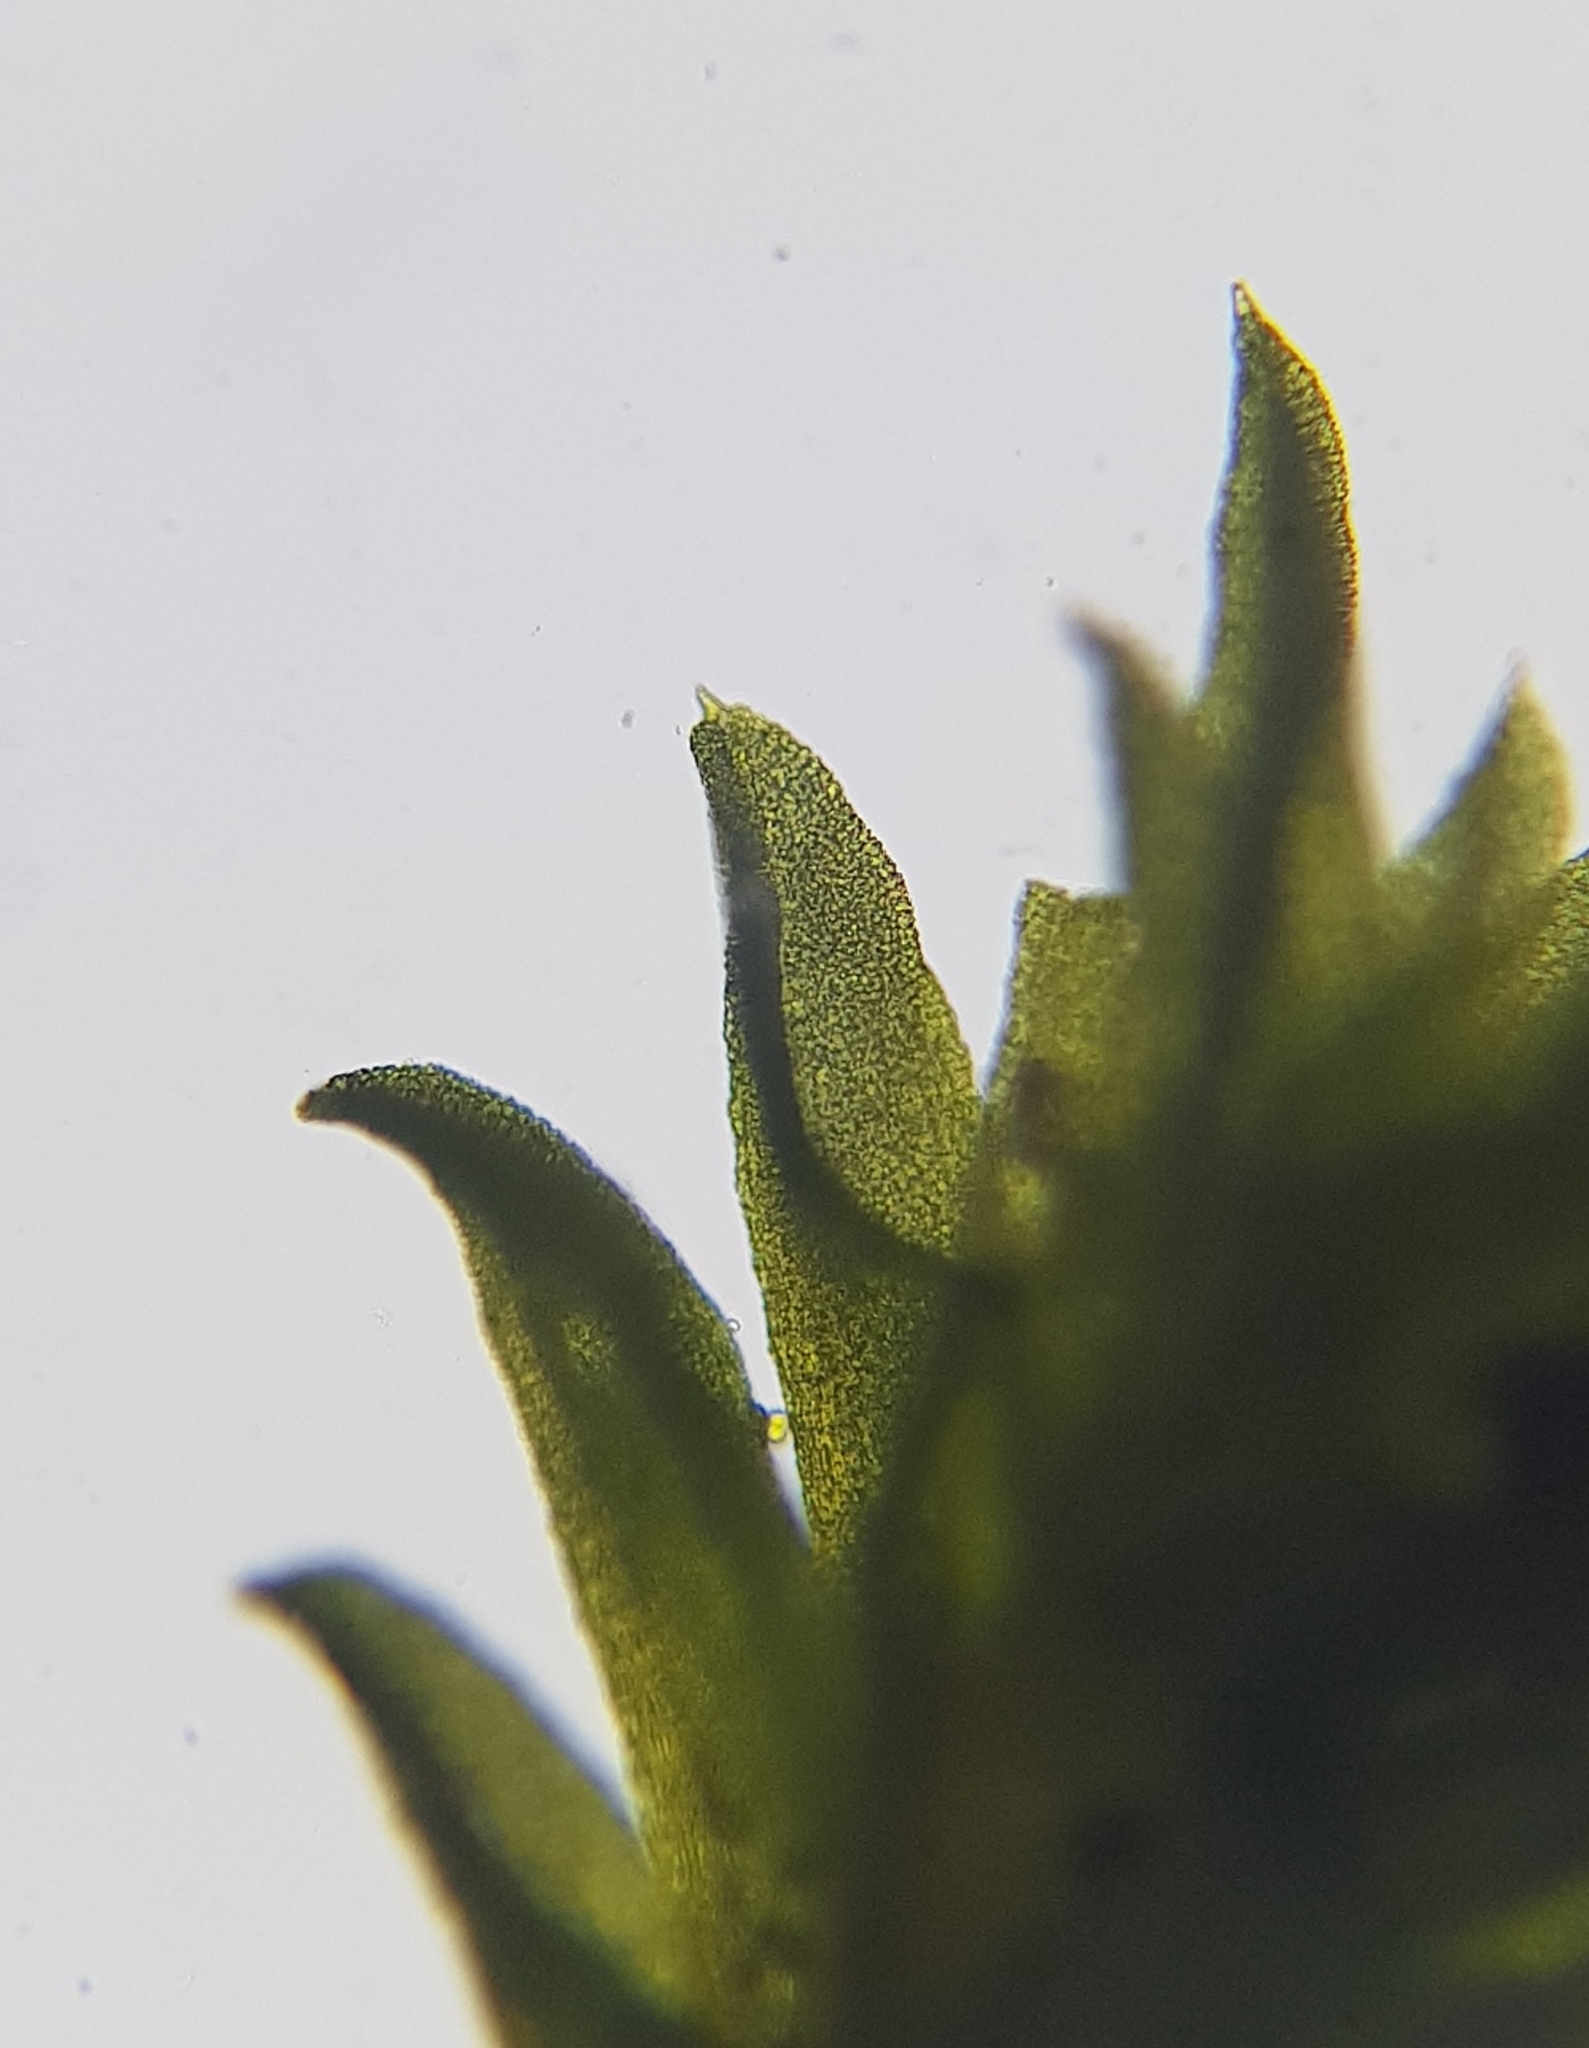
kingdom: Plantae
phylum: Bryophyta
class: Bryopsida
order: Pottiales
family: Pottiaceae
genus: Streblotrichum
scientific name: Streblotrichum convolutum
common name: Lesser bird's-claw beard-moss
